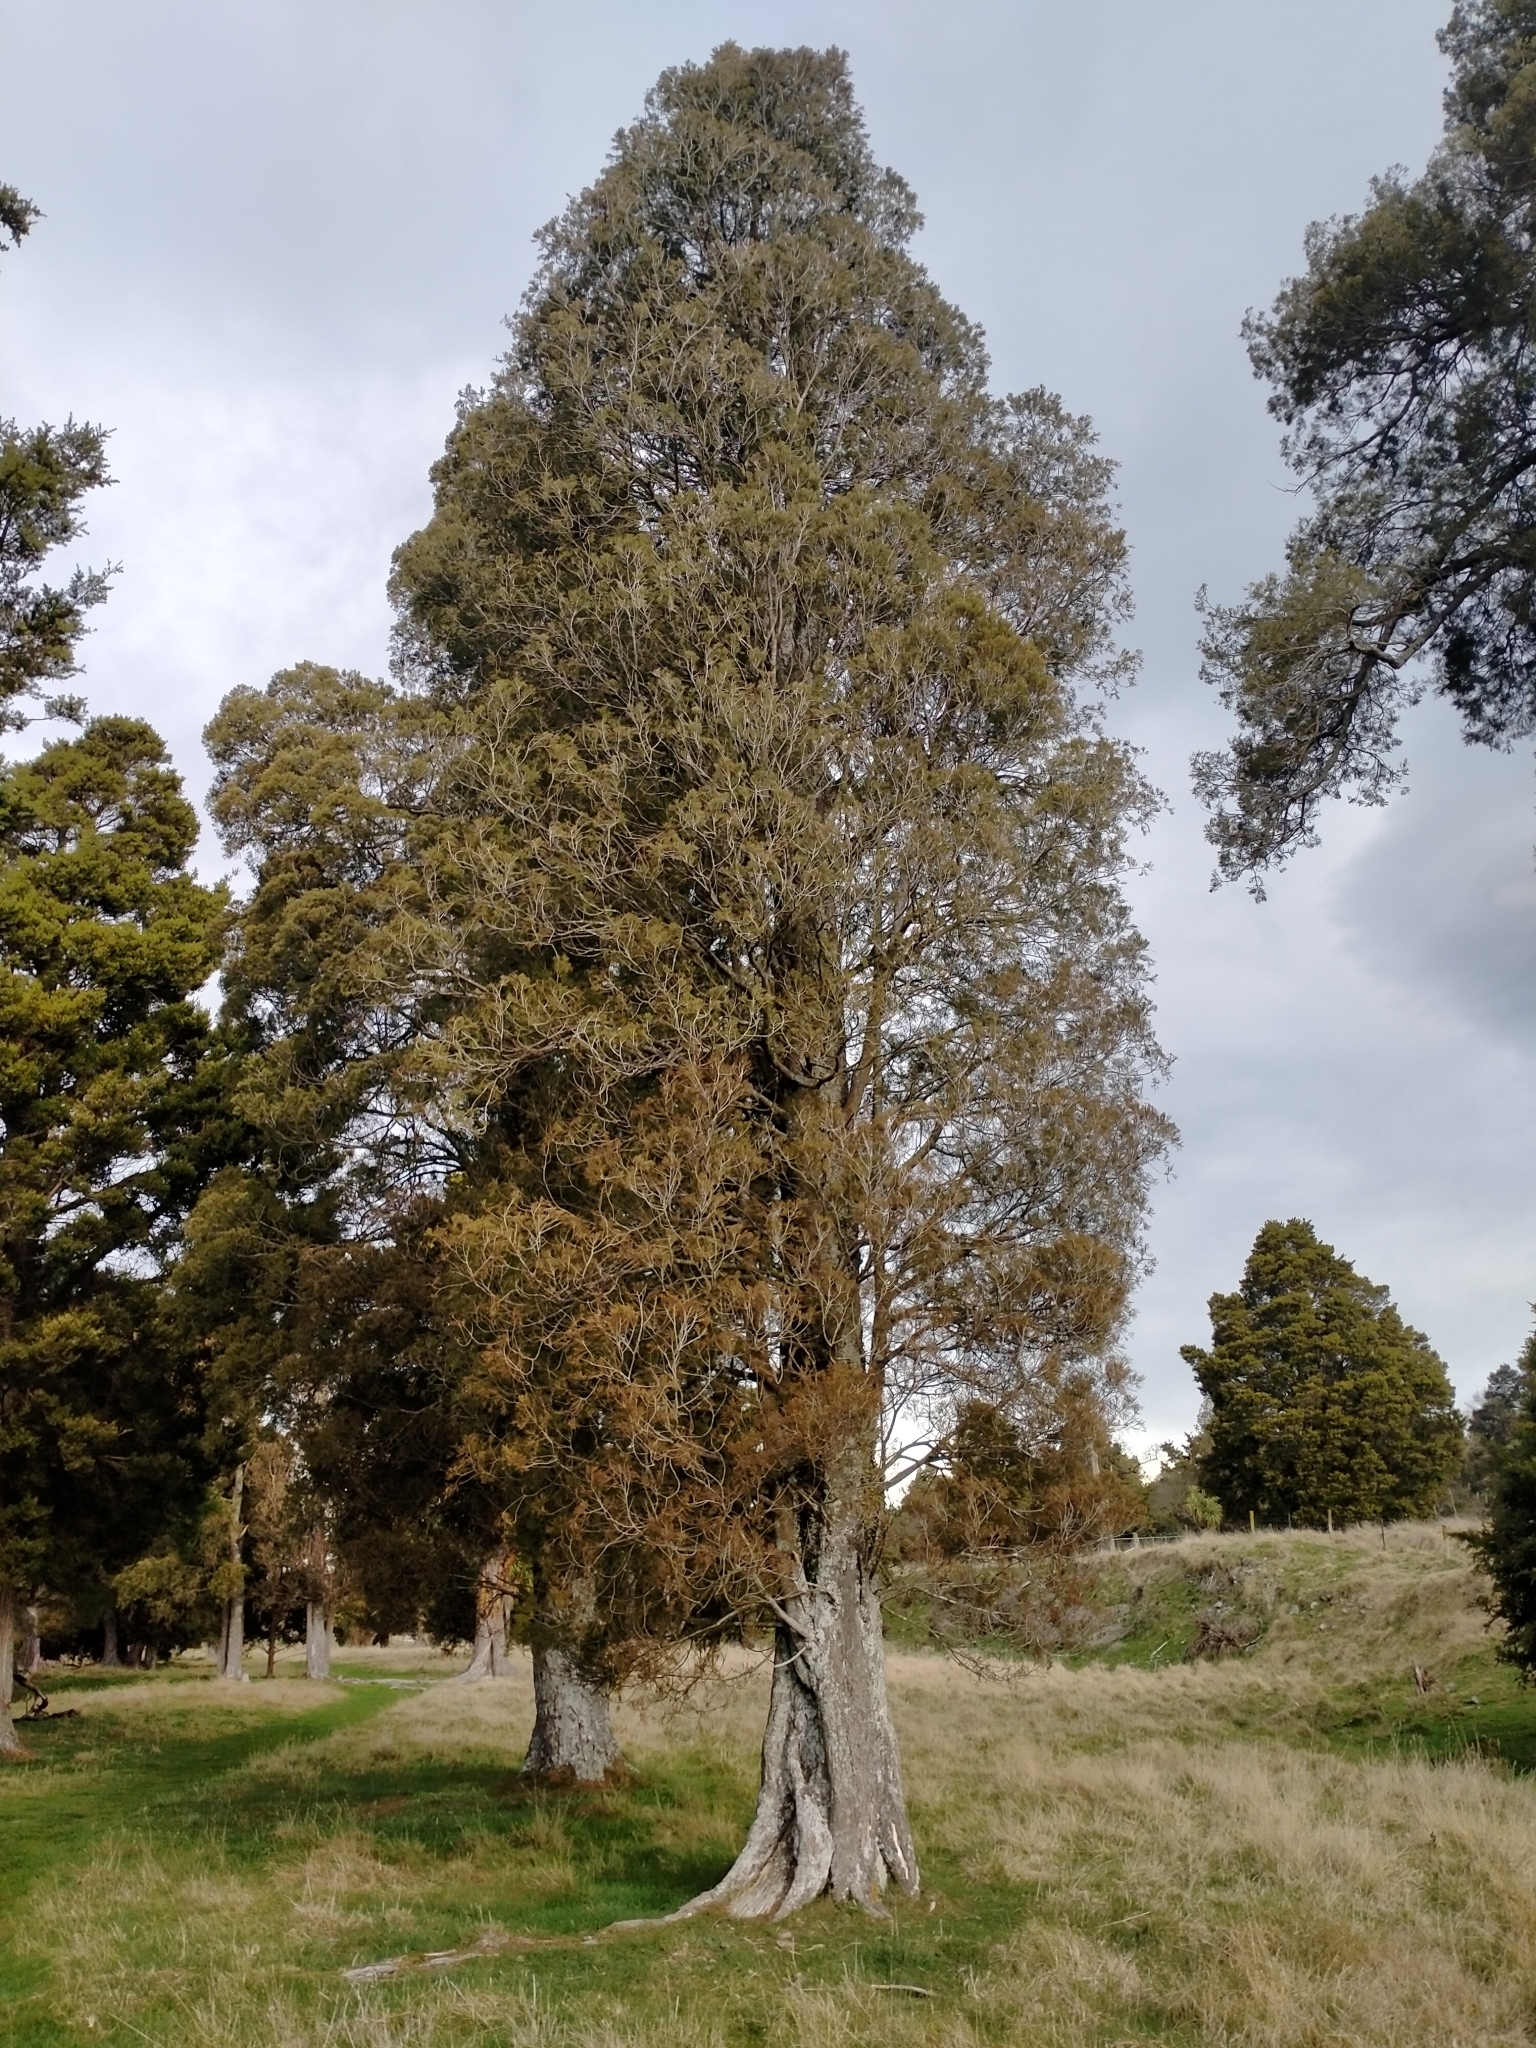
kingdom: Plantae
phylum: Tracheophyta
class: Pinopsida
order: Pinales
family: Podocarpaceae
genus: Dacrycarpus
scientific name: Dacrycarpus dacrydioides
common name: White pine
